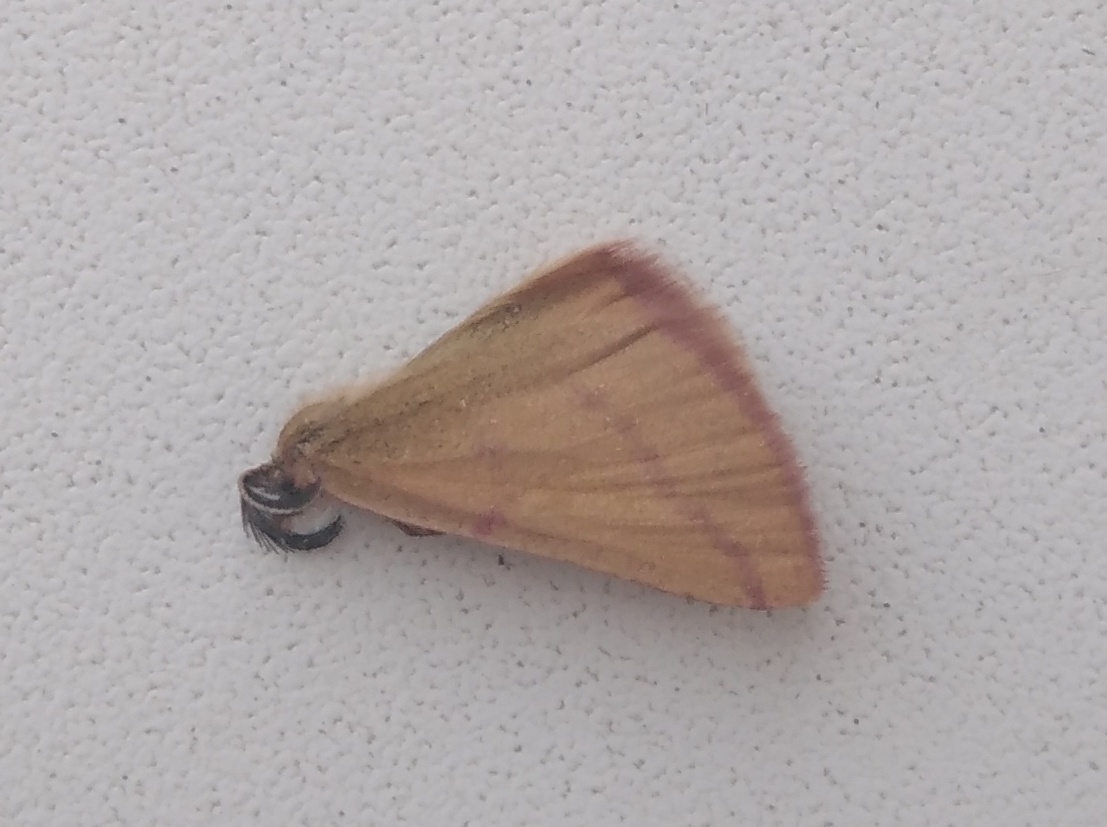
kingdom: Animalia
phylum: Arthropoda
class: Insecta
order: Lepidoptera
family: Geometridae
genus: Lythria
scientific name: Lythria purpuraria
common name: Purple-barred yellow
